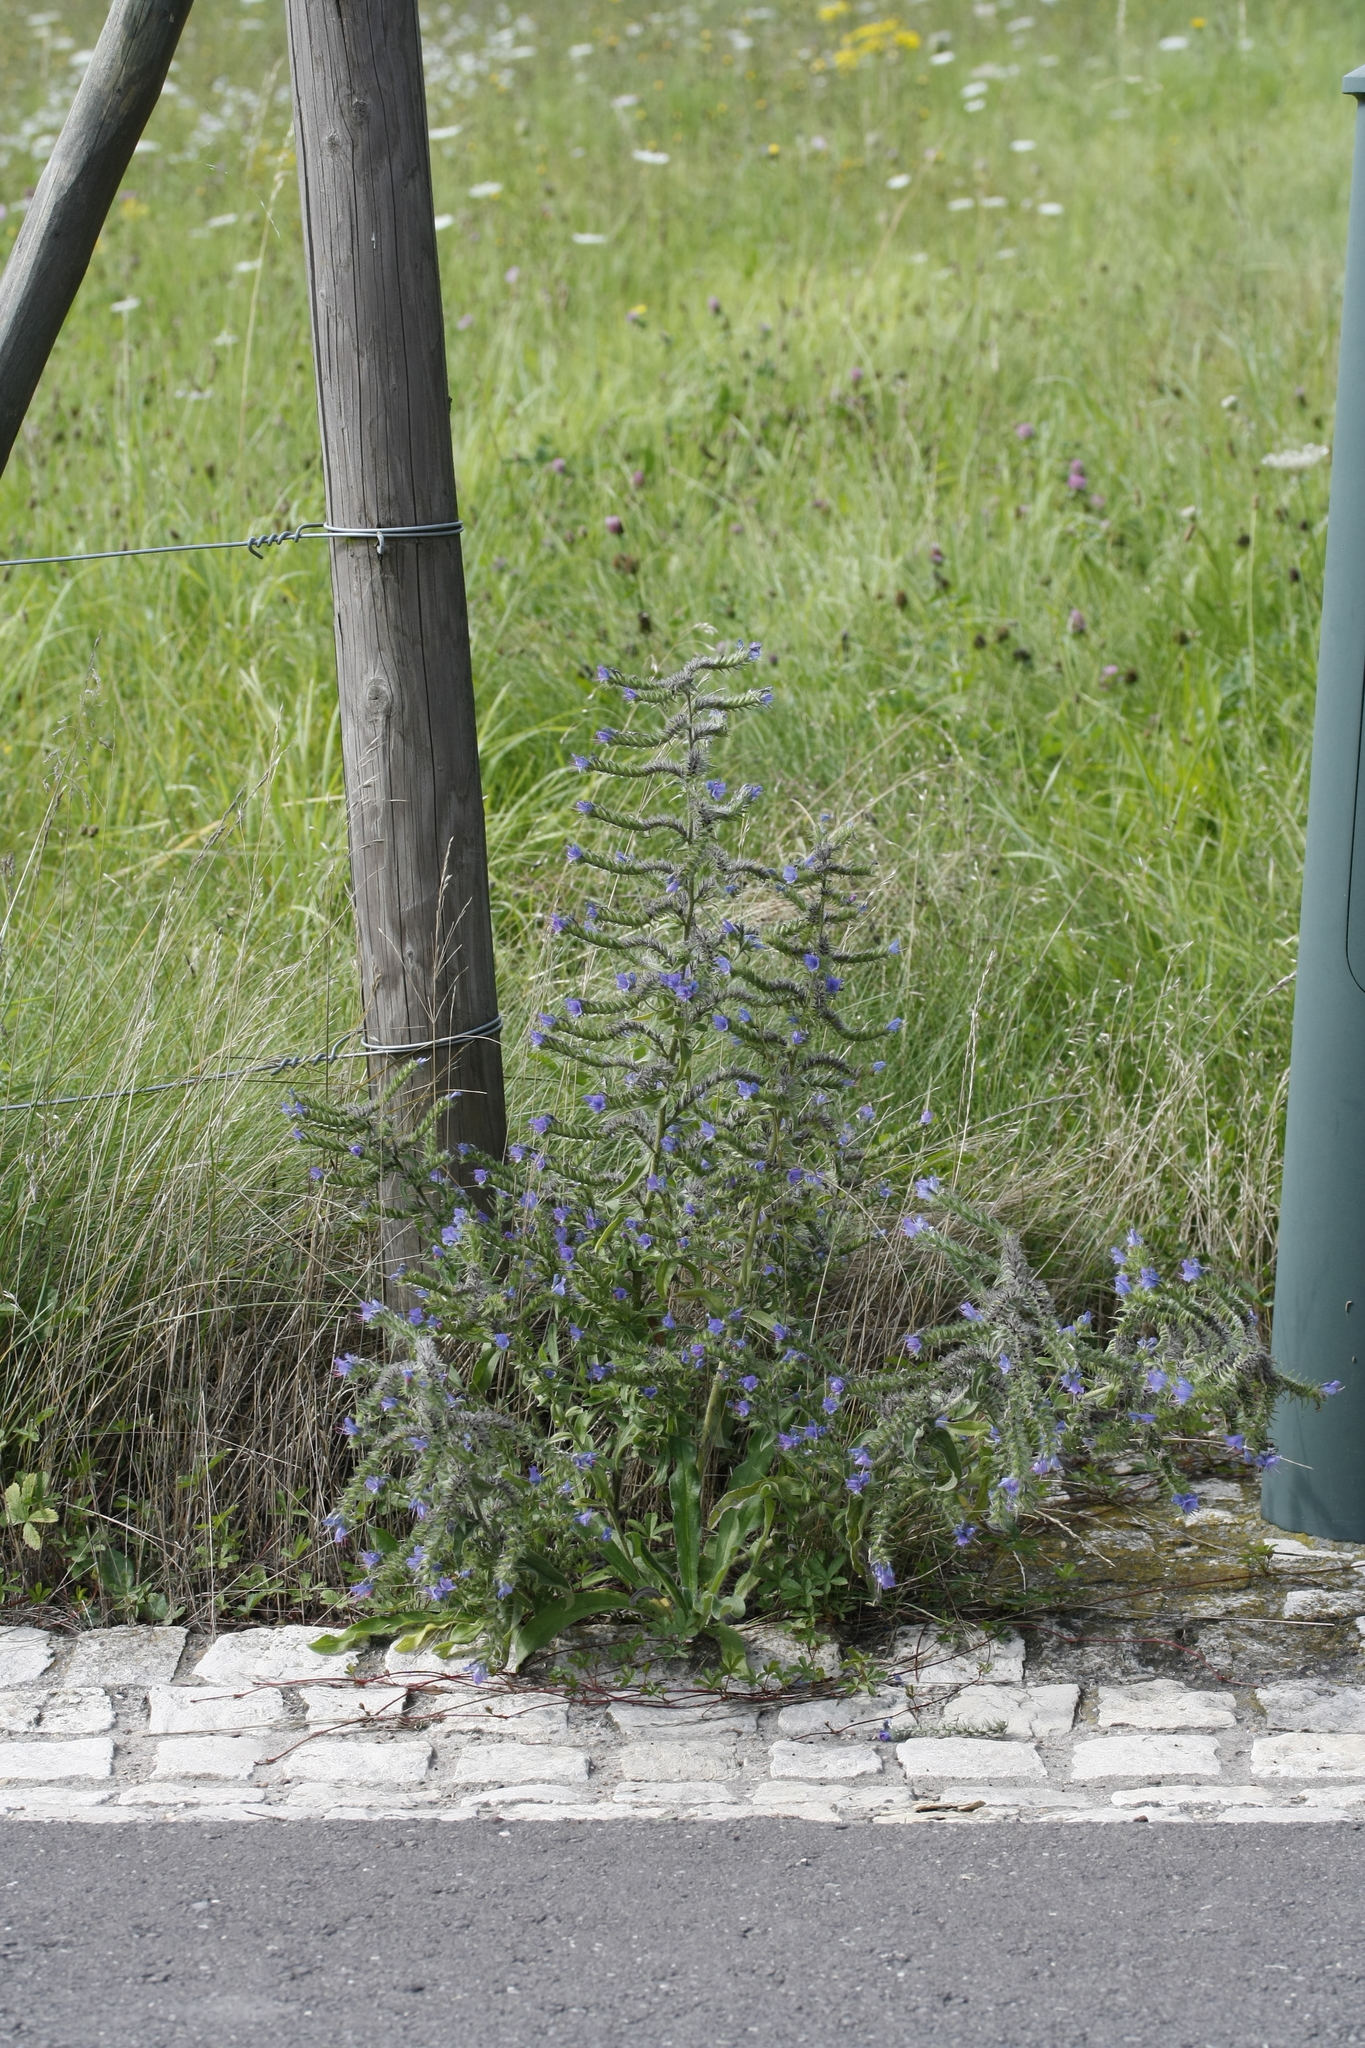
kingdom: Plantae
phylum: Tracheophyta
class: Magnoliopsida
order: Boraginales
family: Boraginaceae
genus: Echium
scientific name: Echium vulgare
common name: Common viper's bugloss
